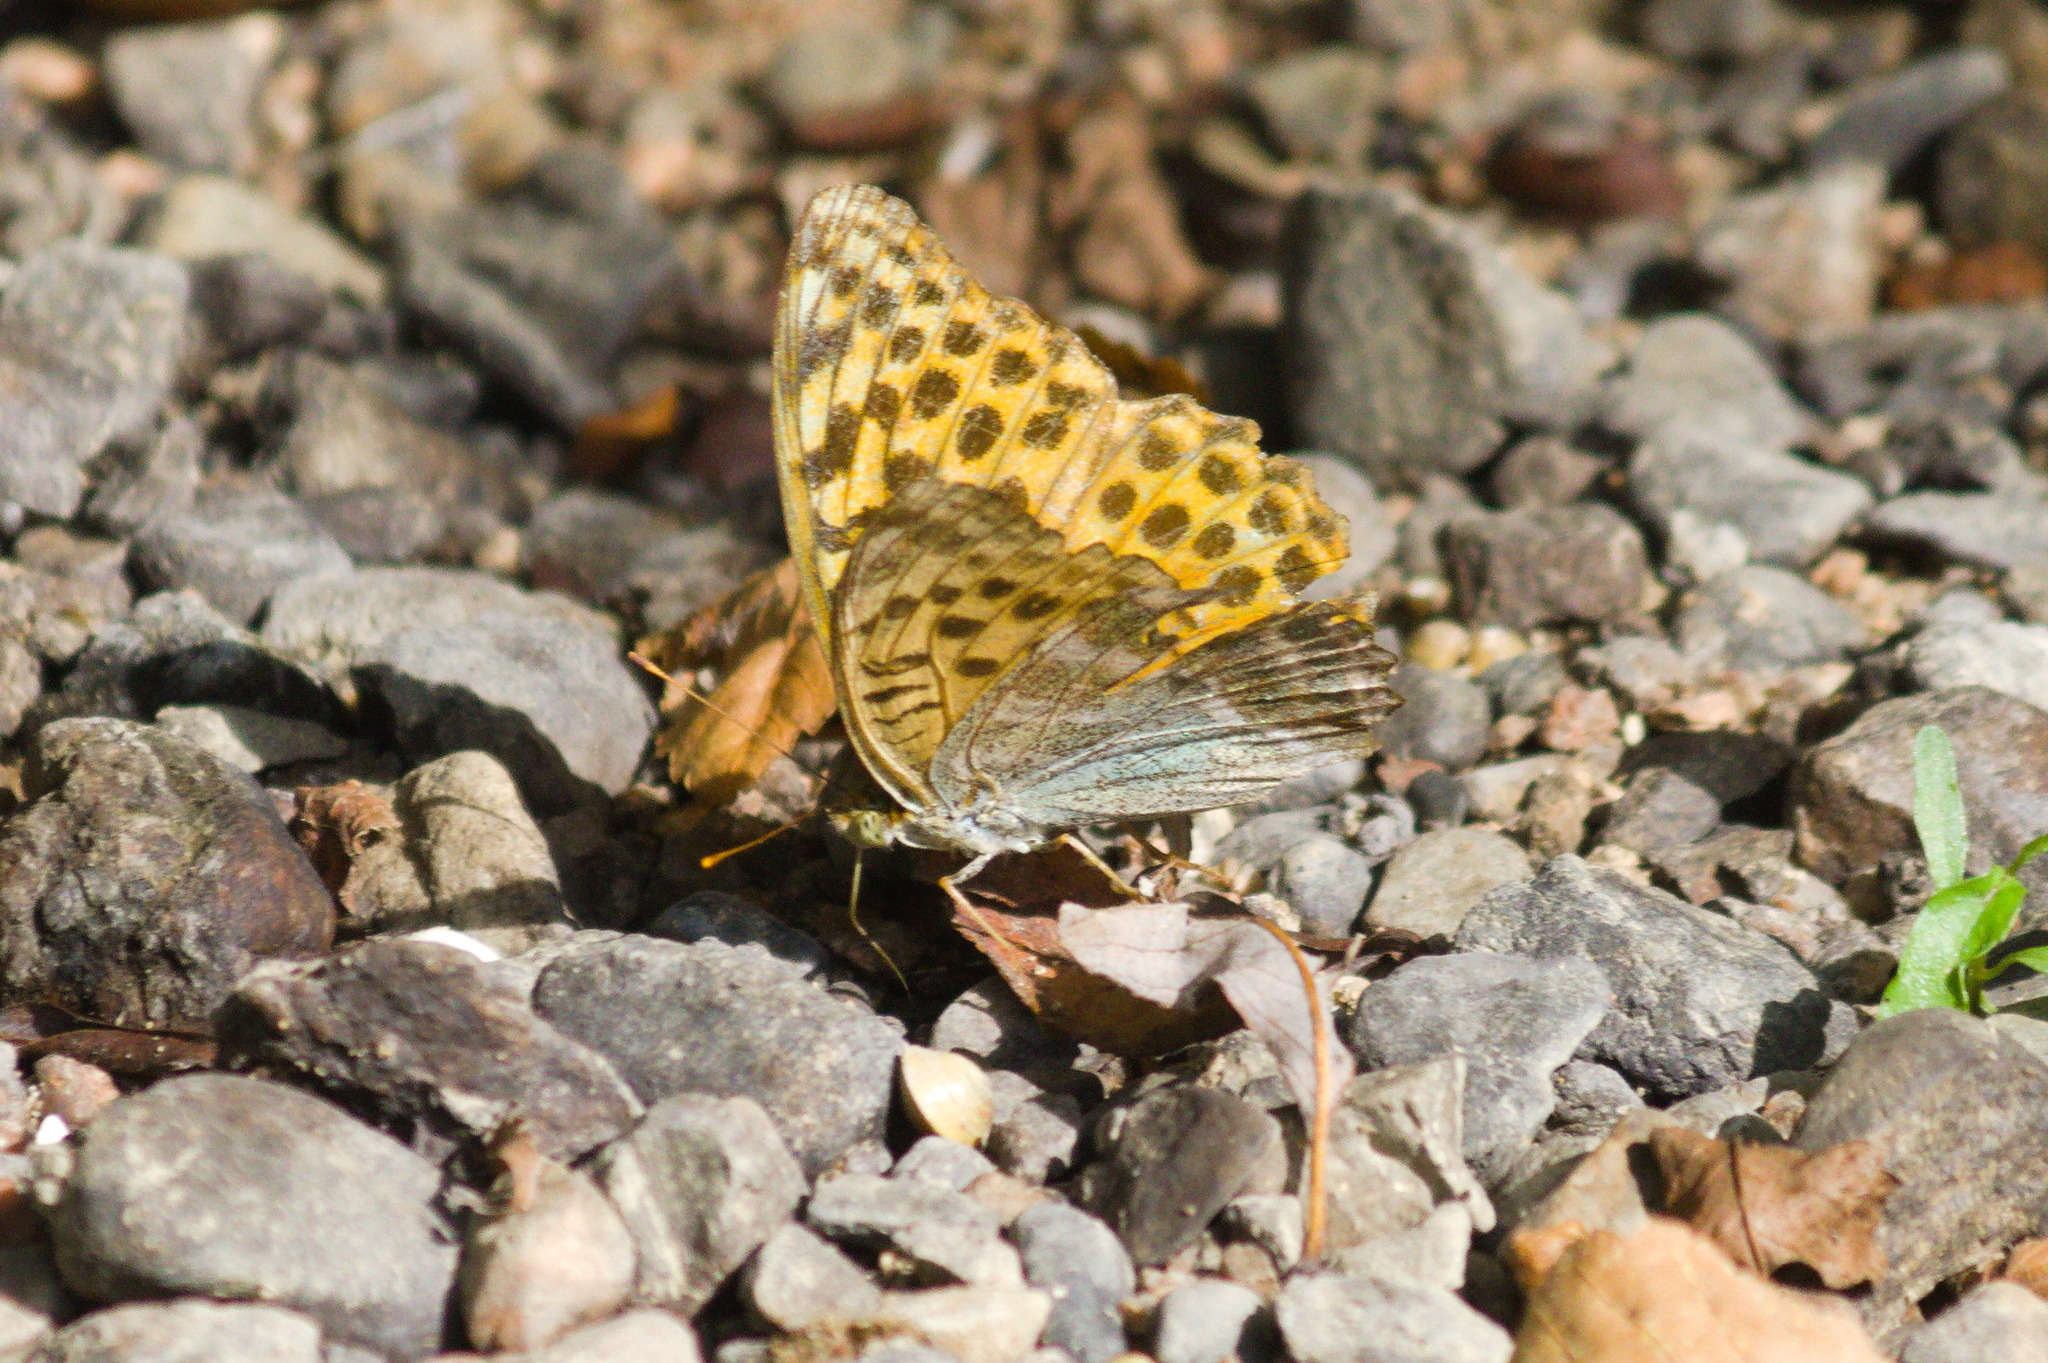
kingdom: Animalia
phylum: Arthropoda
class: Insecta
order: Lepidoptera
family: Nymphalidae
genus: Argynnis
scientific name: Argynnis paphia
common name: Silver-washed fritillary
